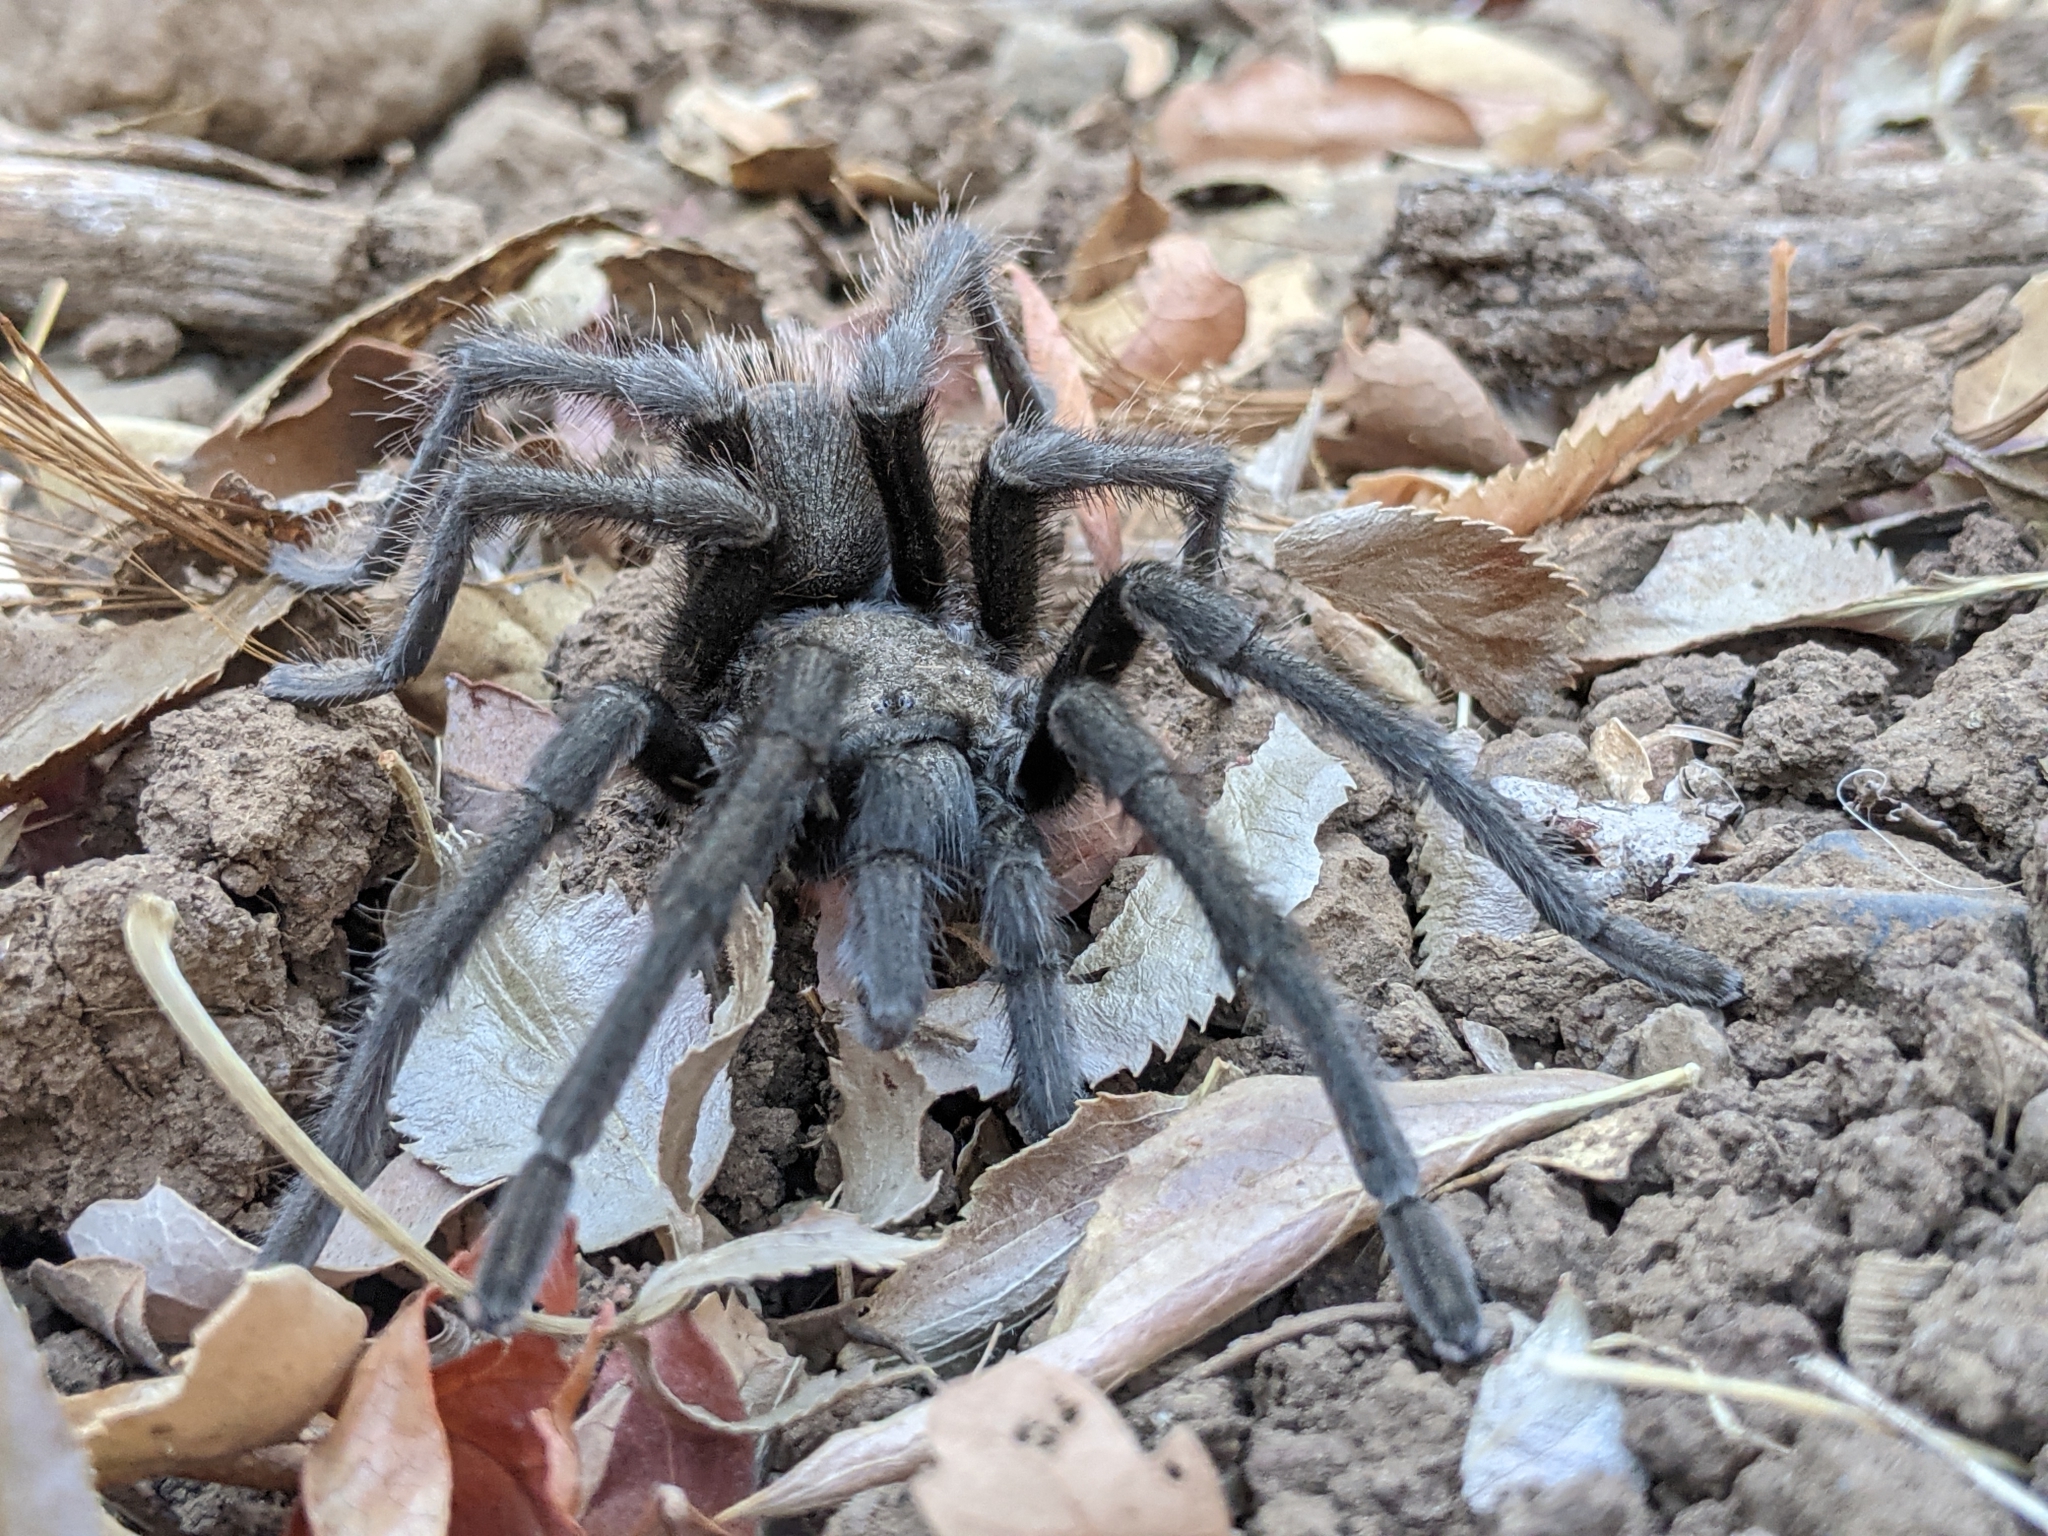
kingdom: Animalia
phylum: Arthropoda
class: Arachnida
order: Araneae
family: Theraphosidae
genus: Aphonopelma
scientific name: Aphonopelma iodius
